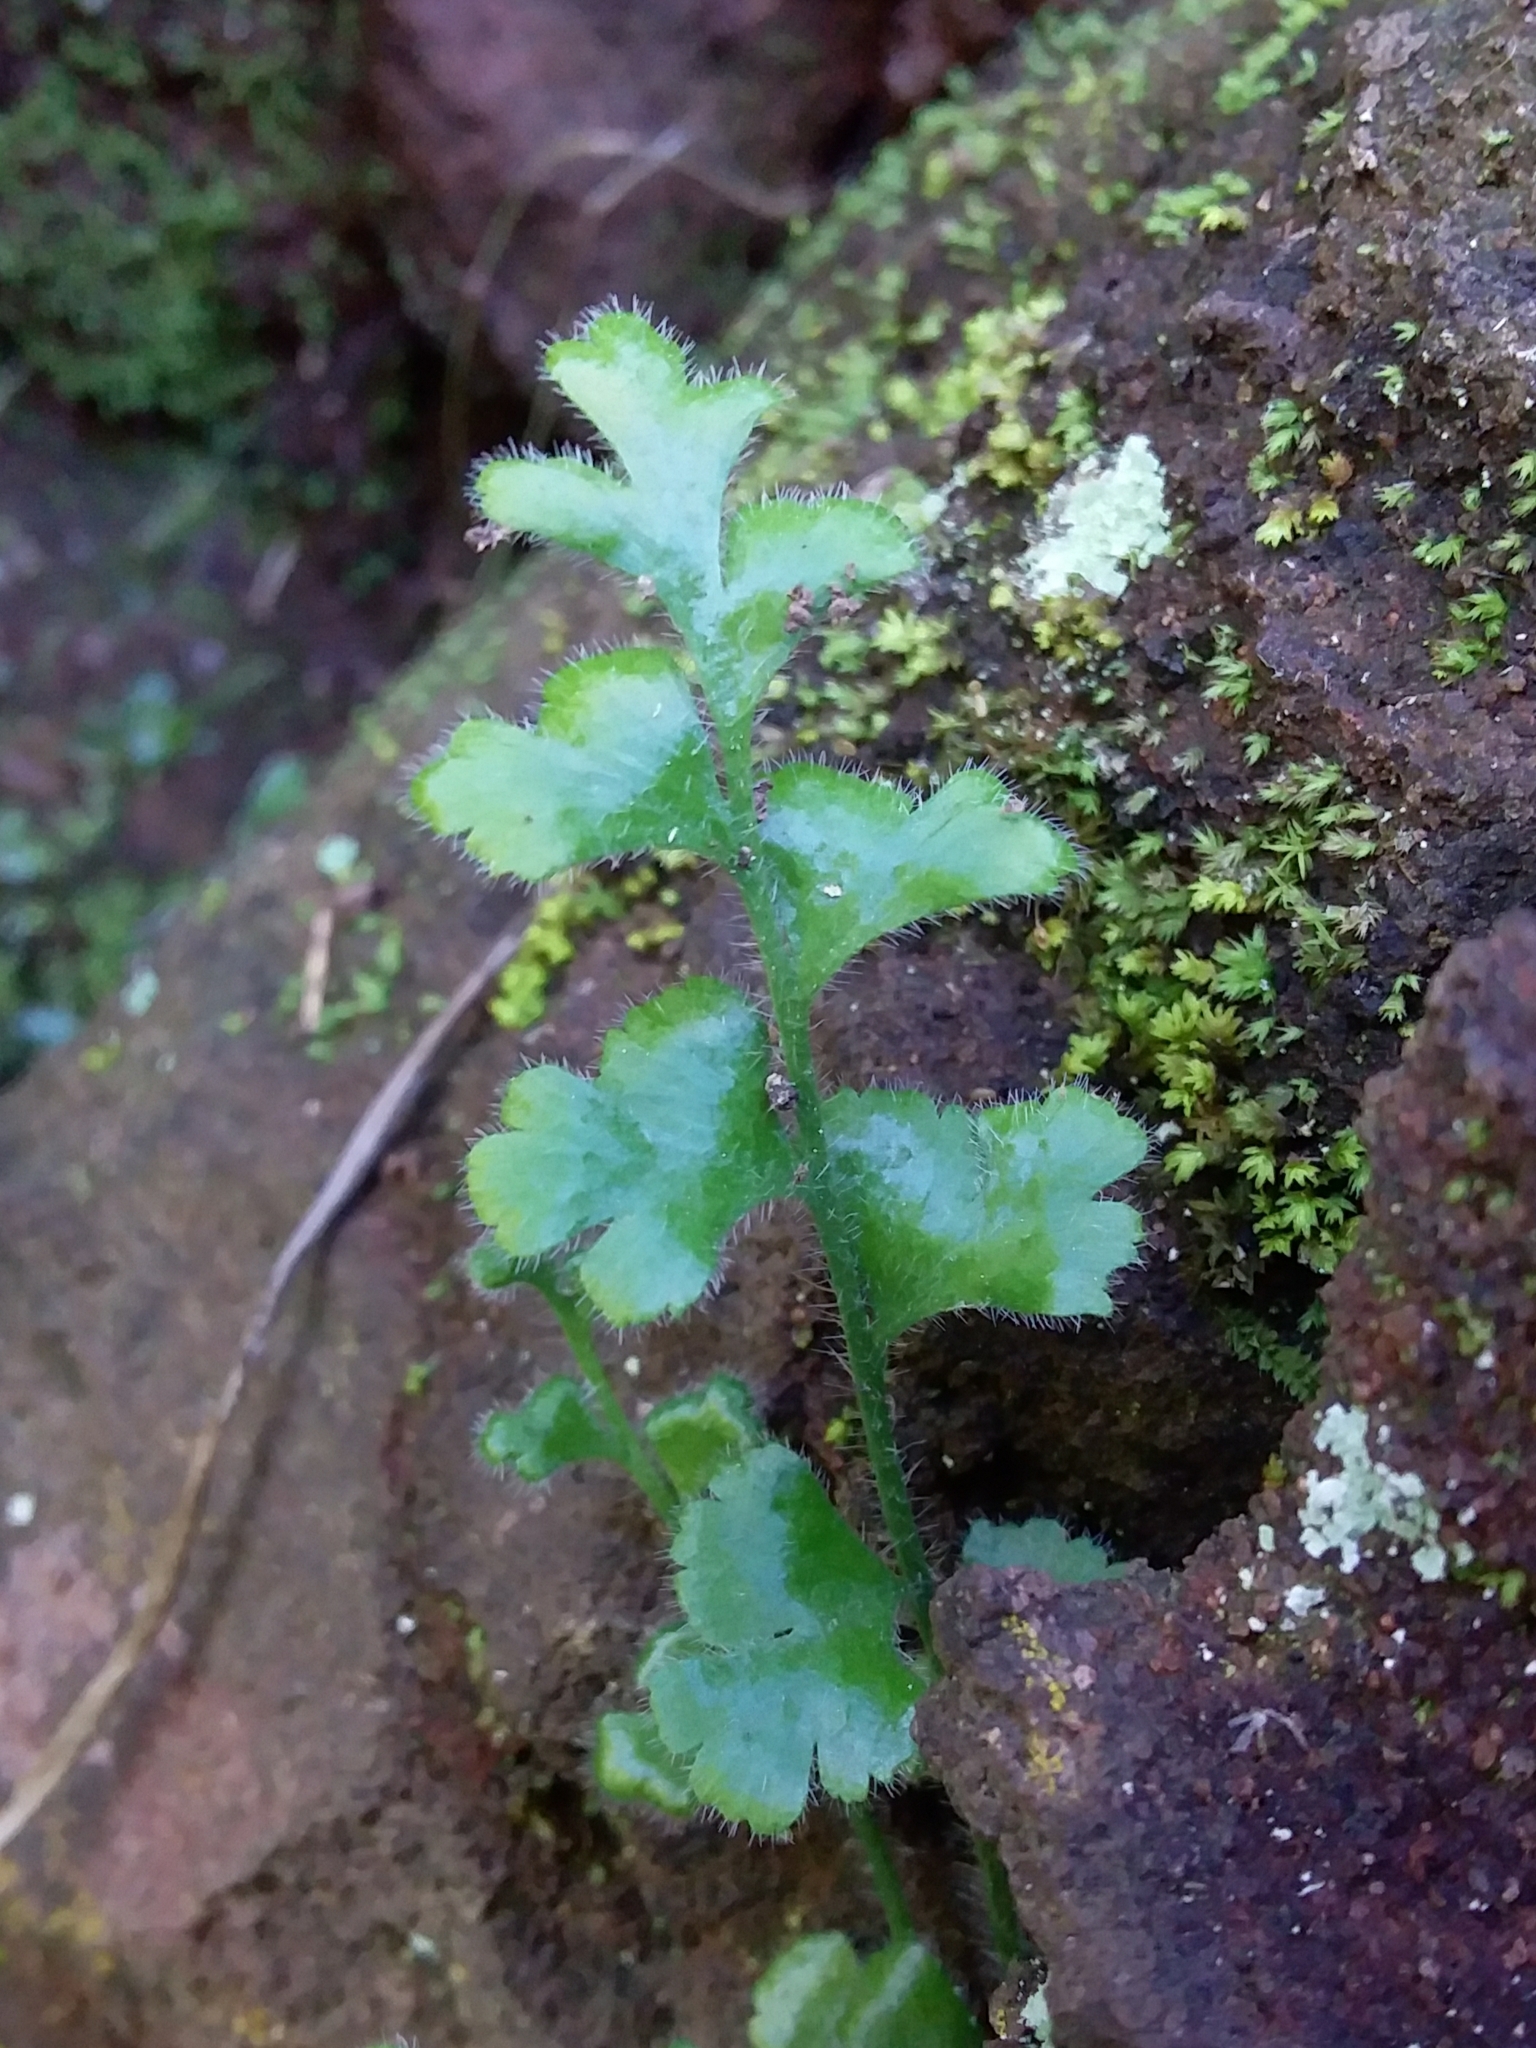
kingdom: Plantae
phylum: Tracheophyta
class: Polypodiopsida
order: Polypodiales
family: Aspleniaceae
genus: Asplenium
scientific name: Asplenium subglandulosum
